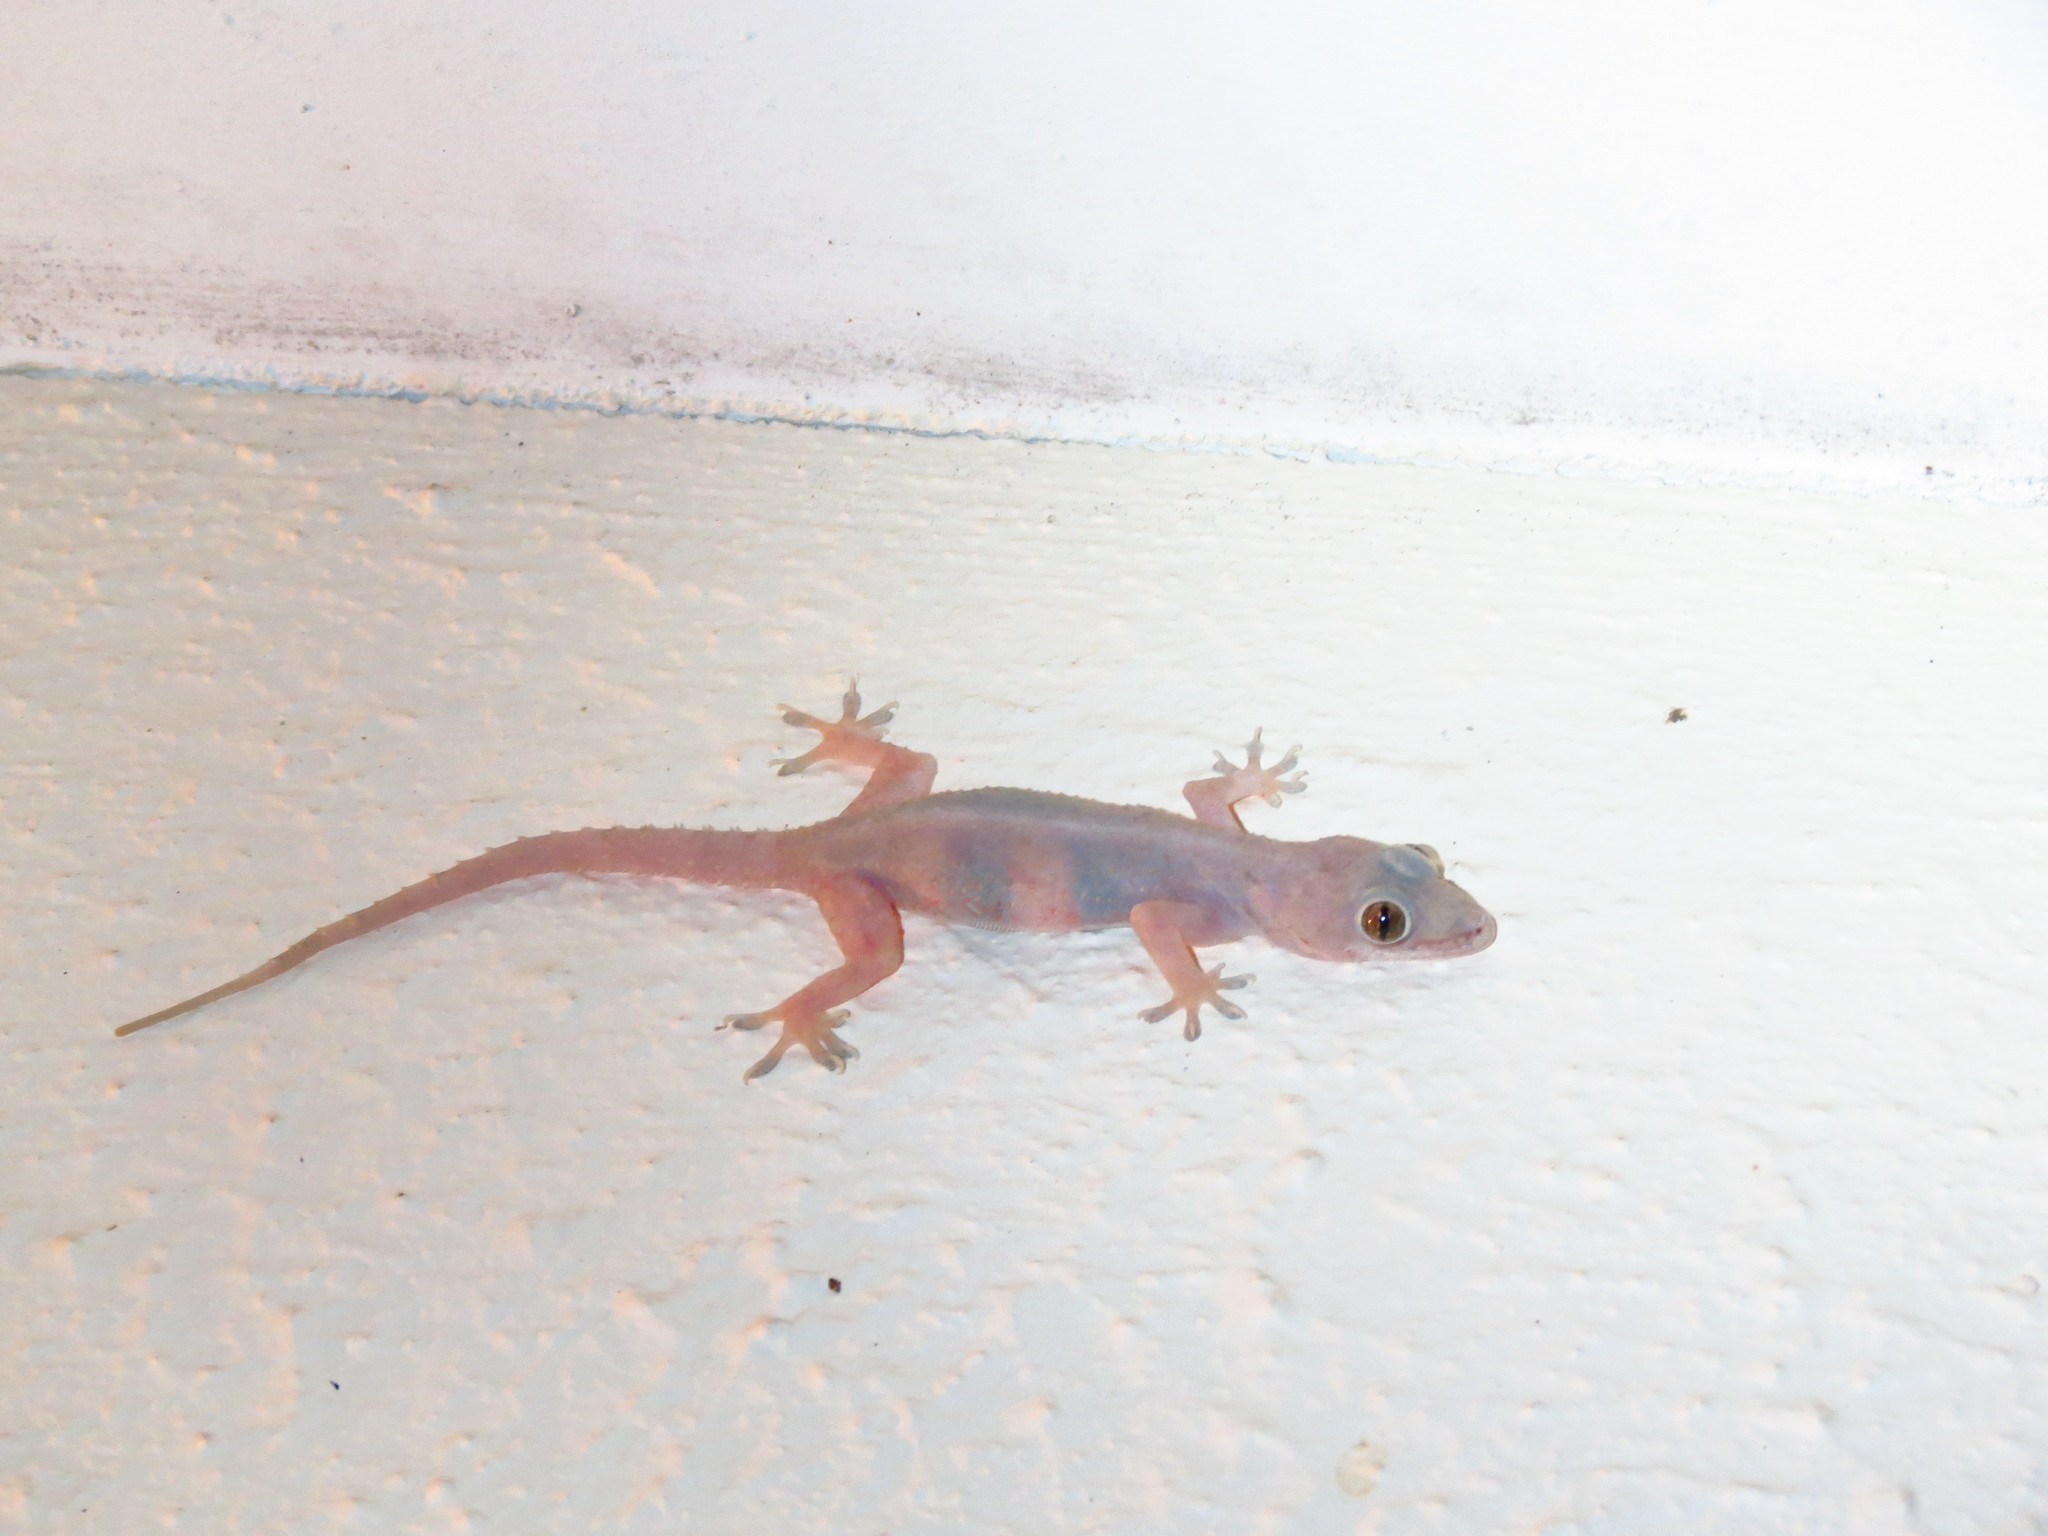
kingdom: Animalia
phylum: Chordata
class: Squamata
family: Gekkonidae
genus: Hemidactylus
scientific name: Hemidactylus mabouia
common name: House gecko
